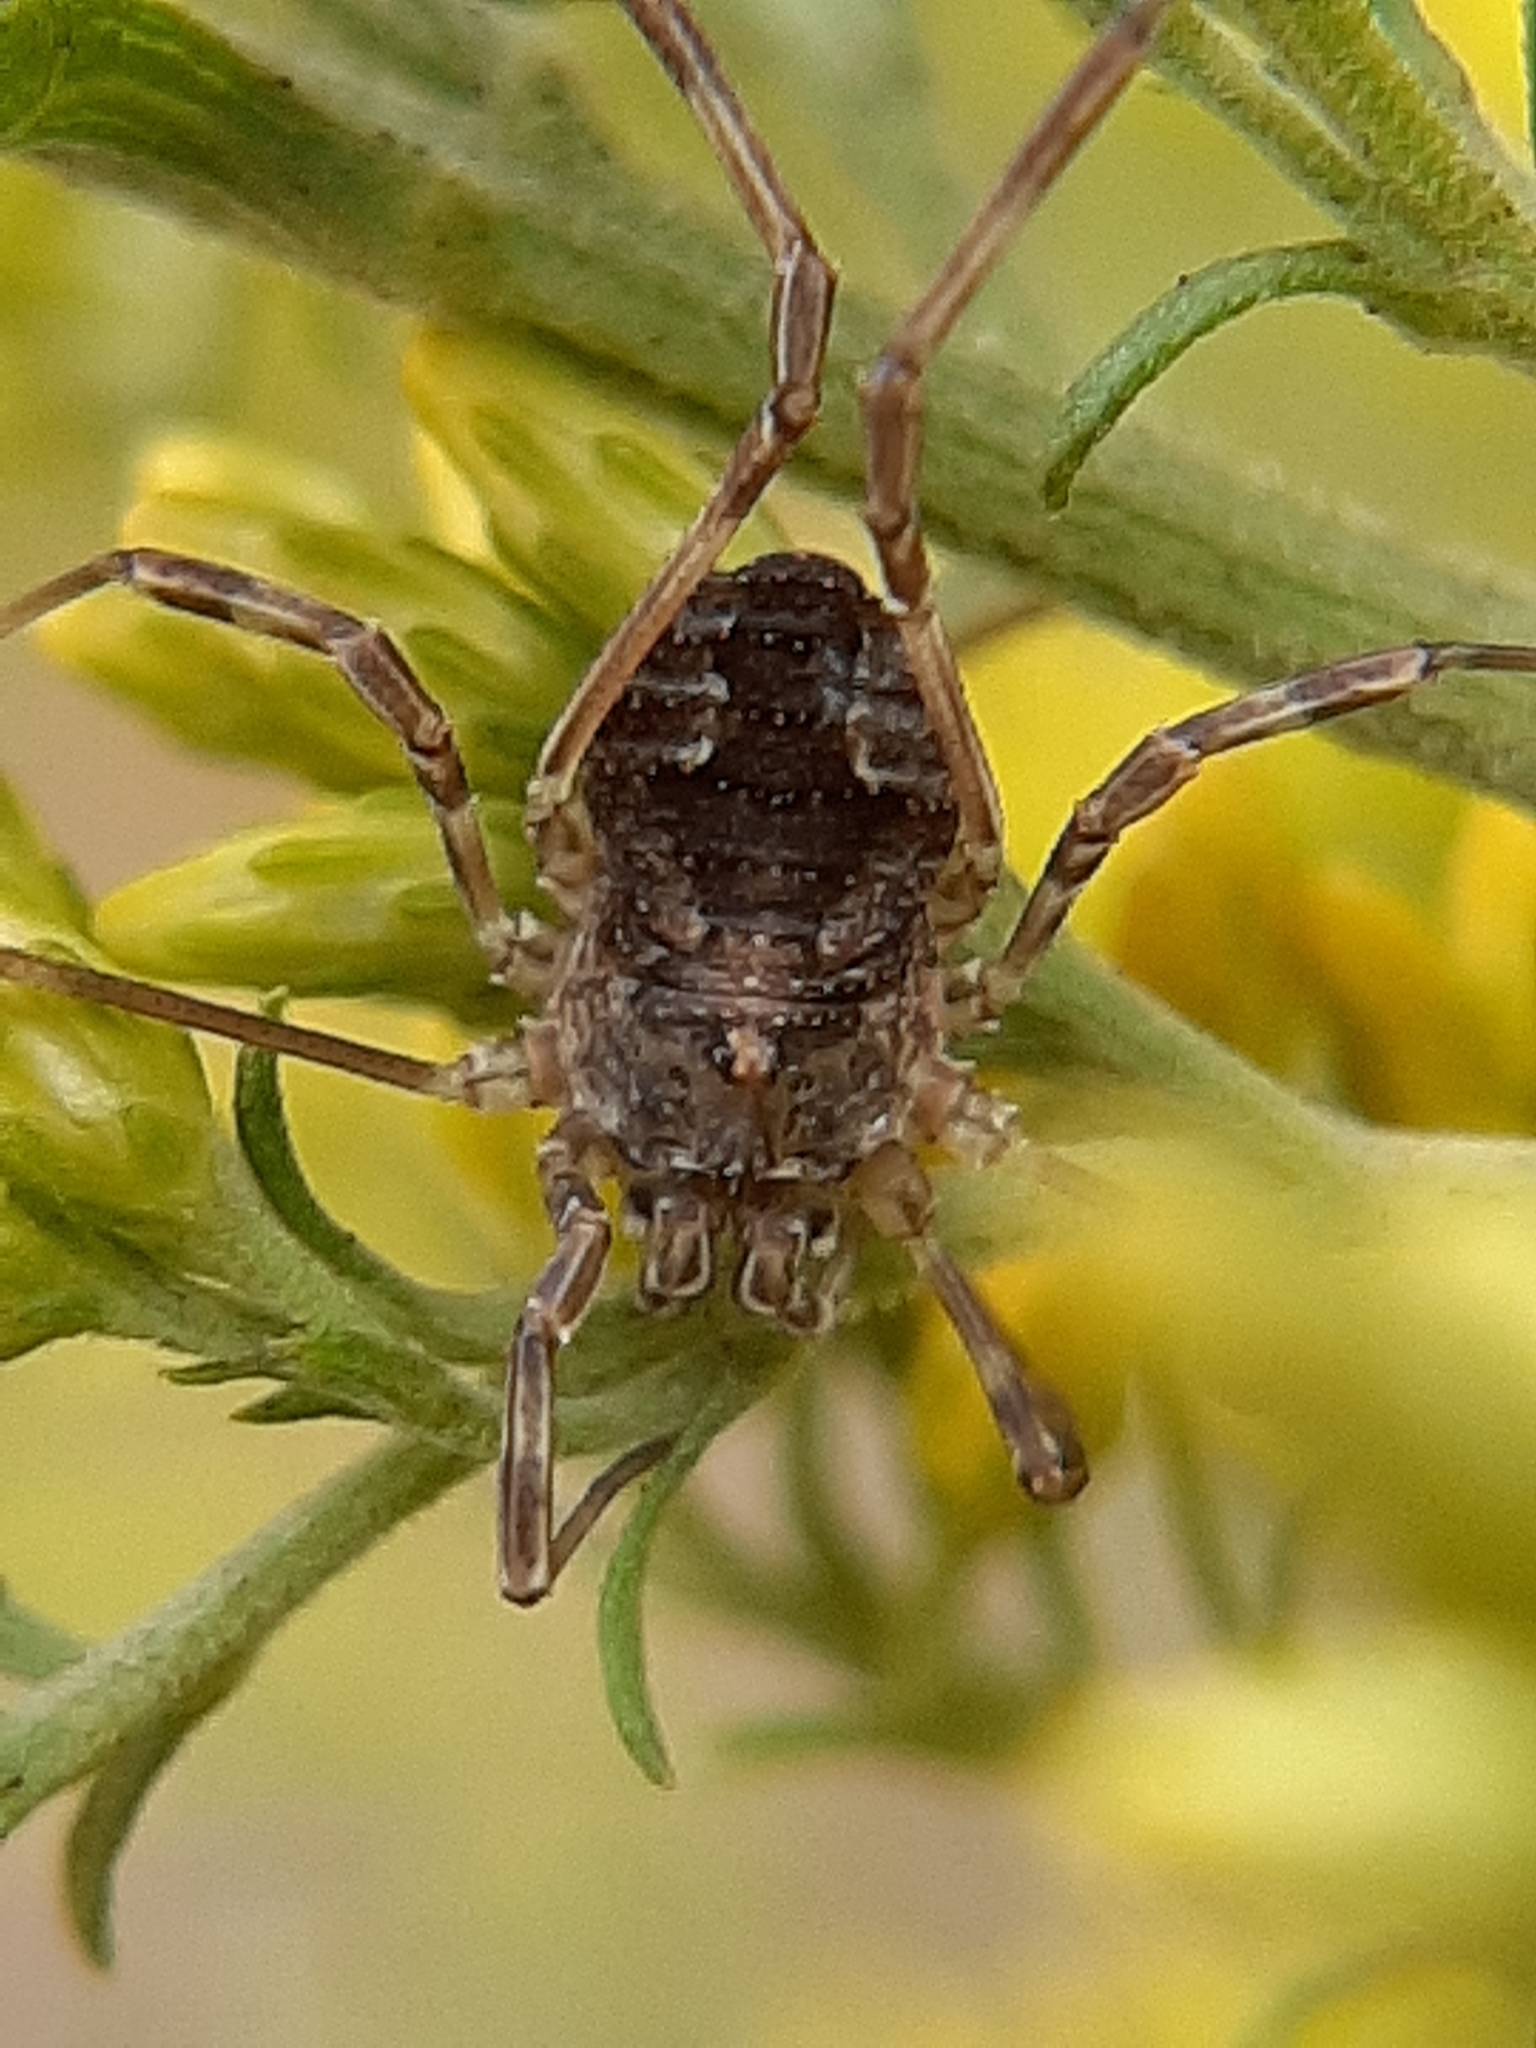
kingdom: Animalia
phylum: Arthropoda
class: Arachnida
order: Opiliones
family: Phalangiidae
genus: Odiellus
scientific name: Odiellus pictus
